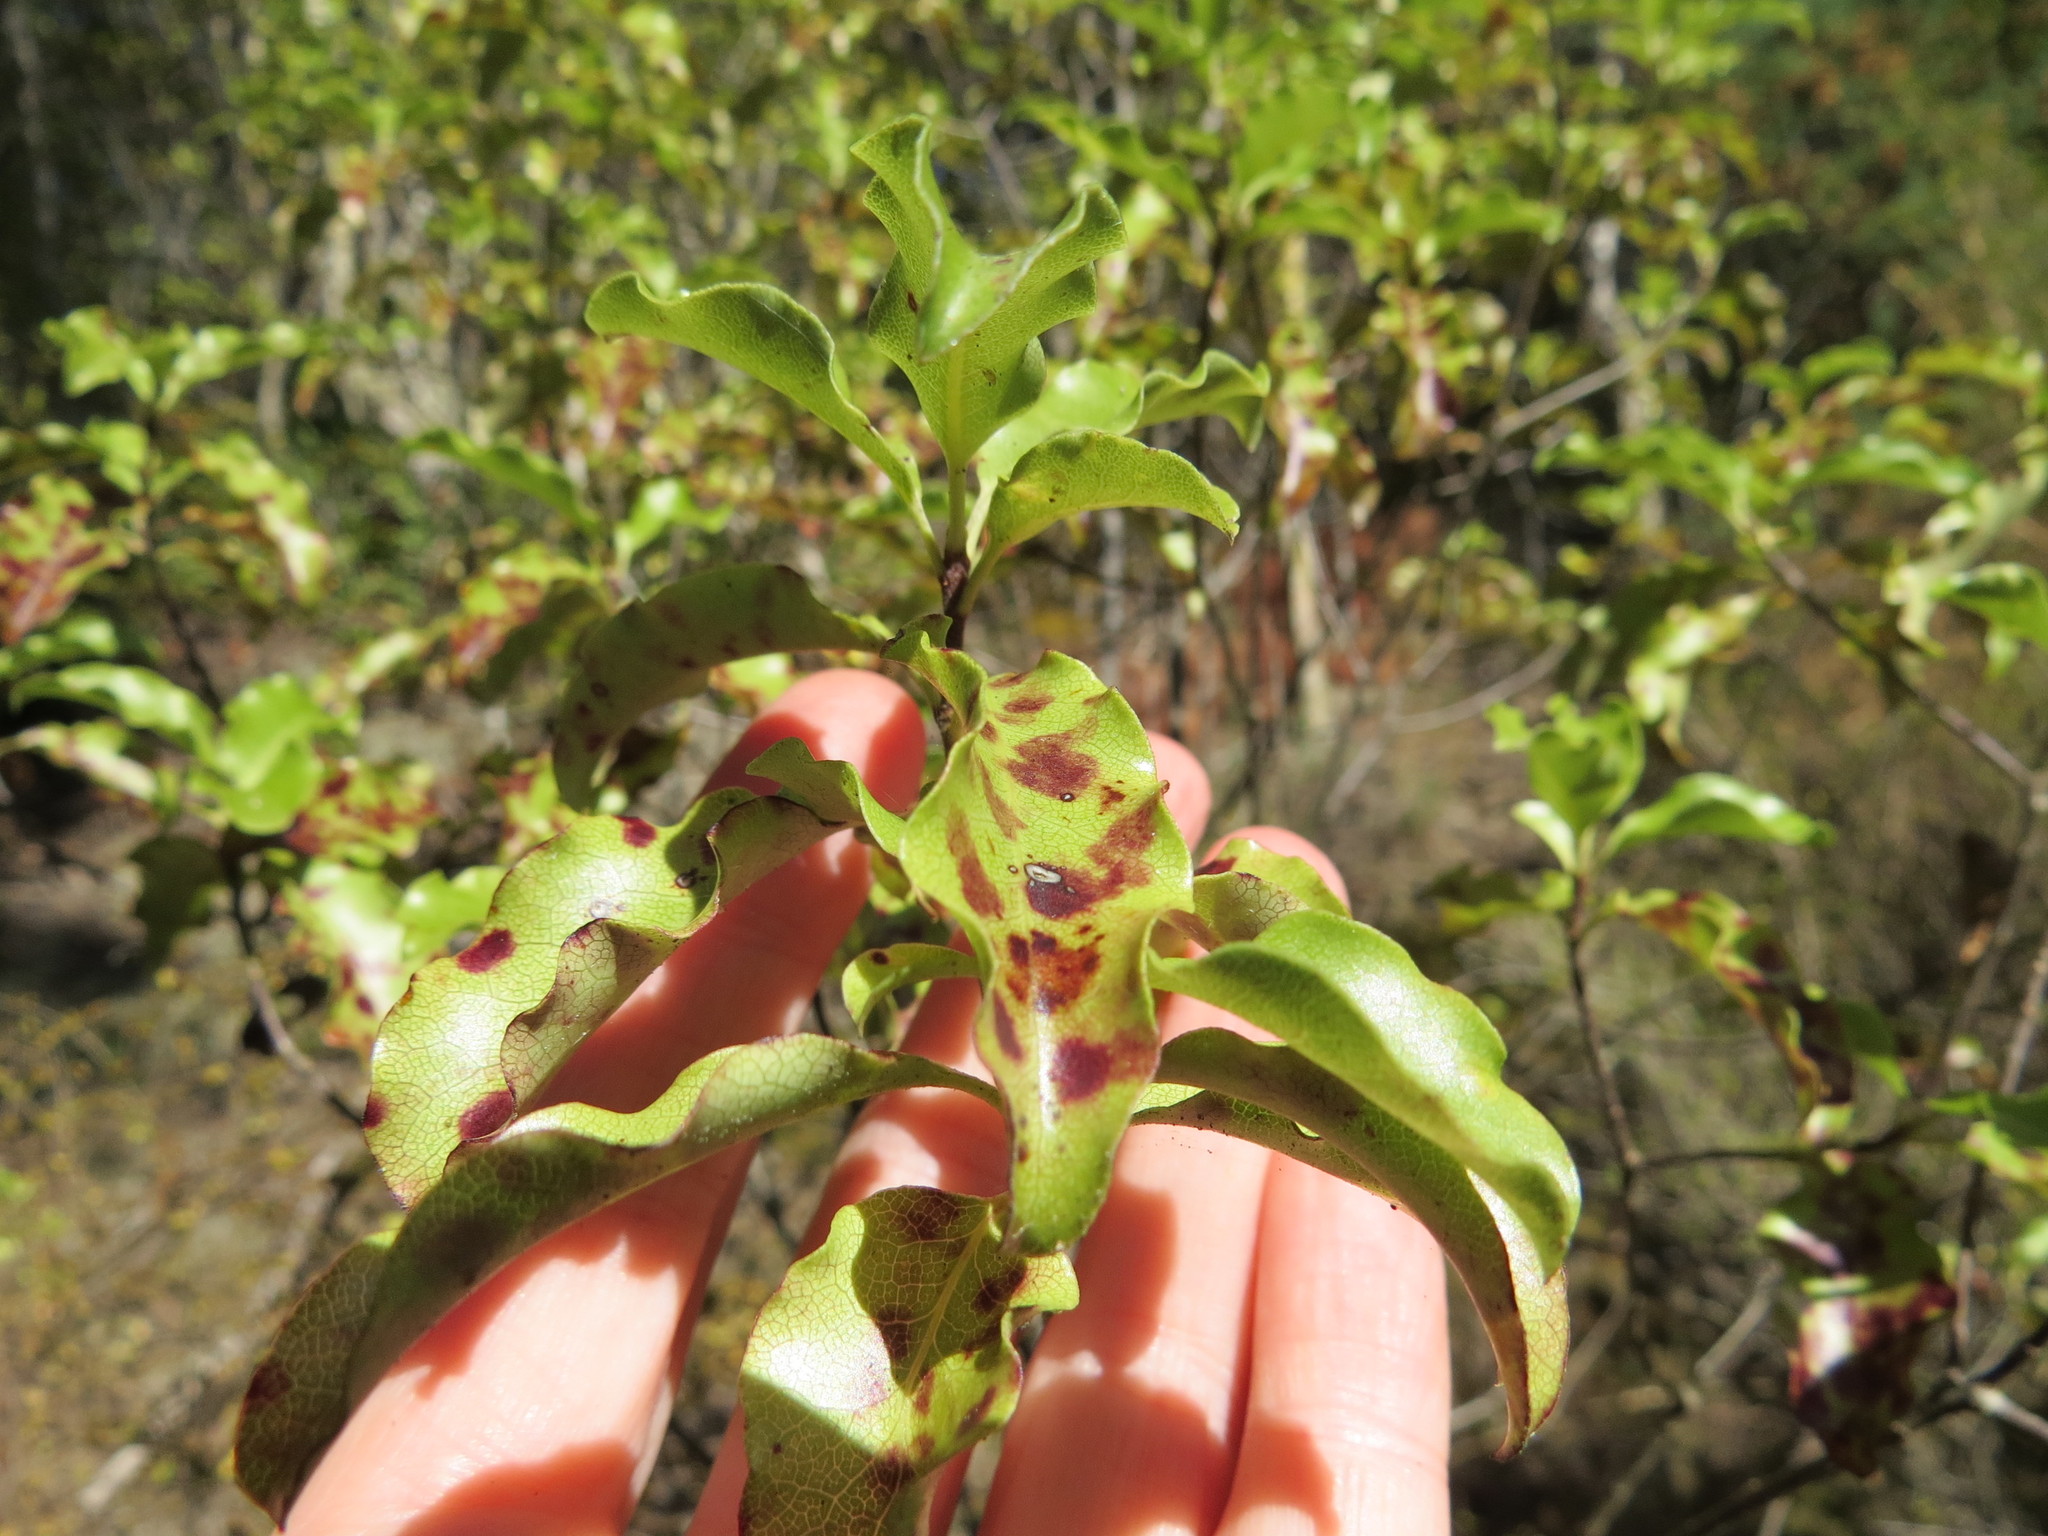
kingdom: Plantae
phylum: Tracheophyta
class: Magnoliopsida
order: Apiales
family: Pittosporaceae
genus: Pittosporum
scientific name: Pittosporum tenuifolium
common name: Kohuhu
